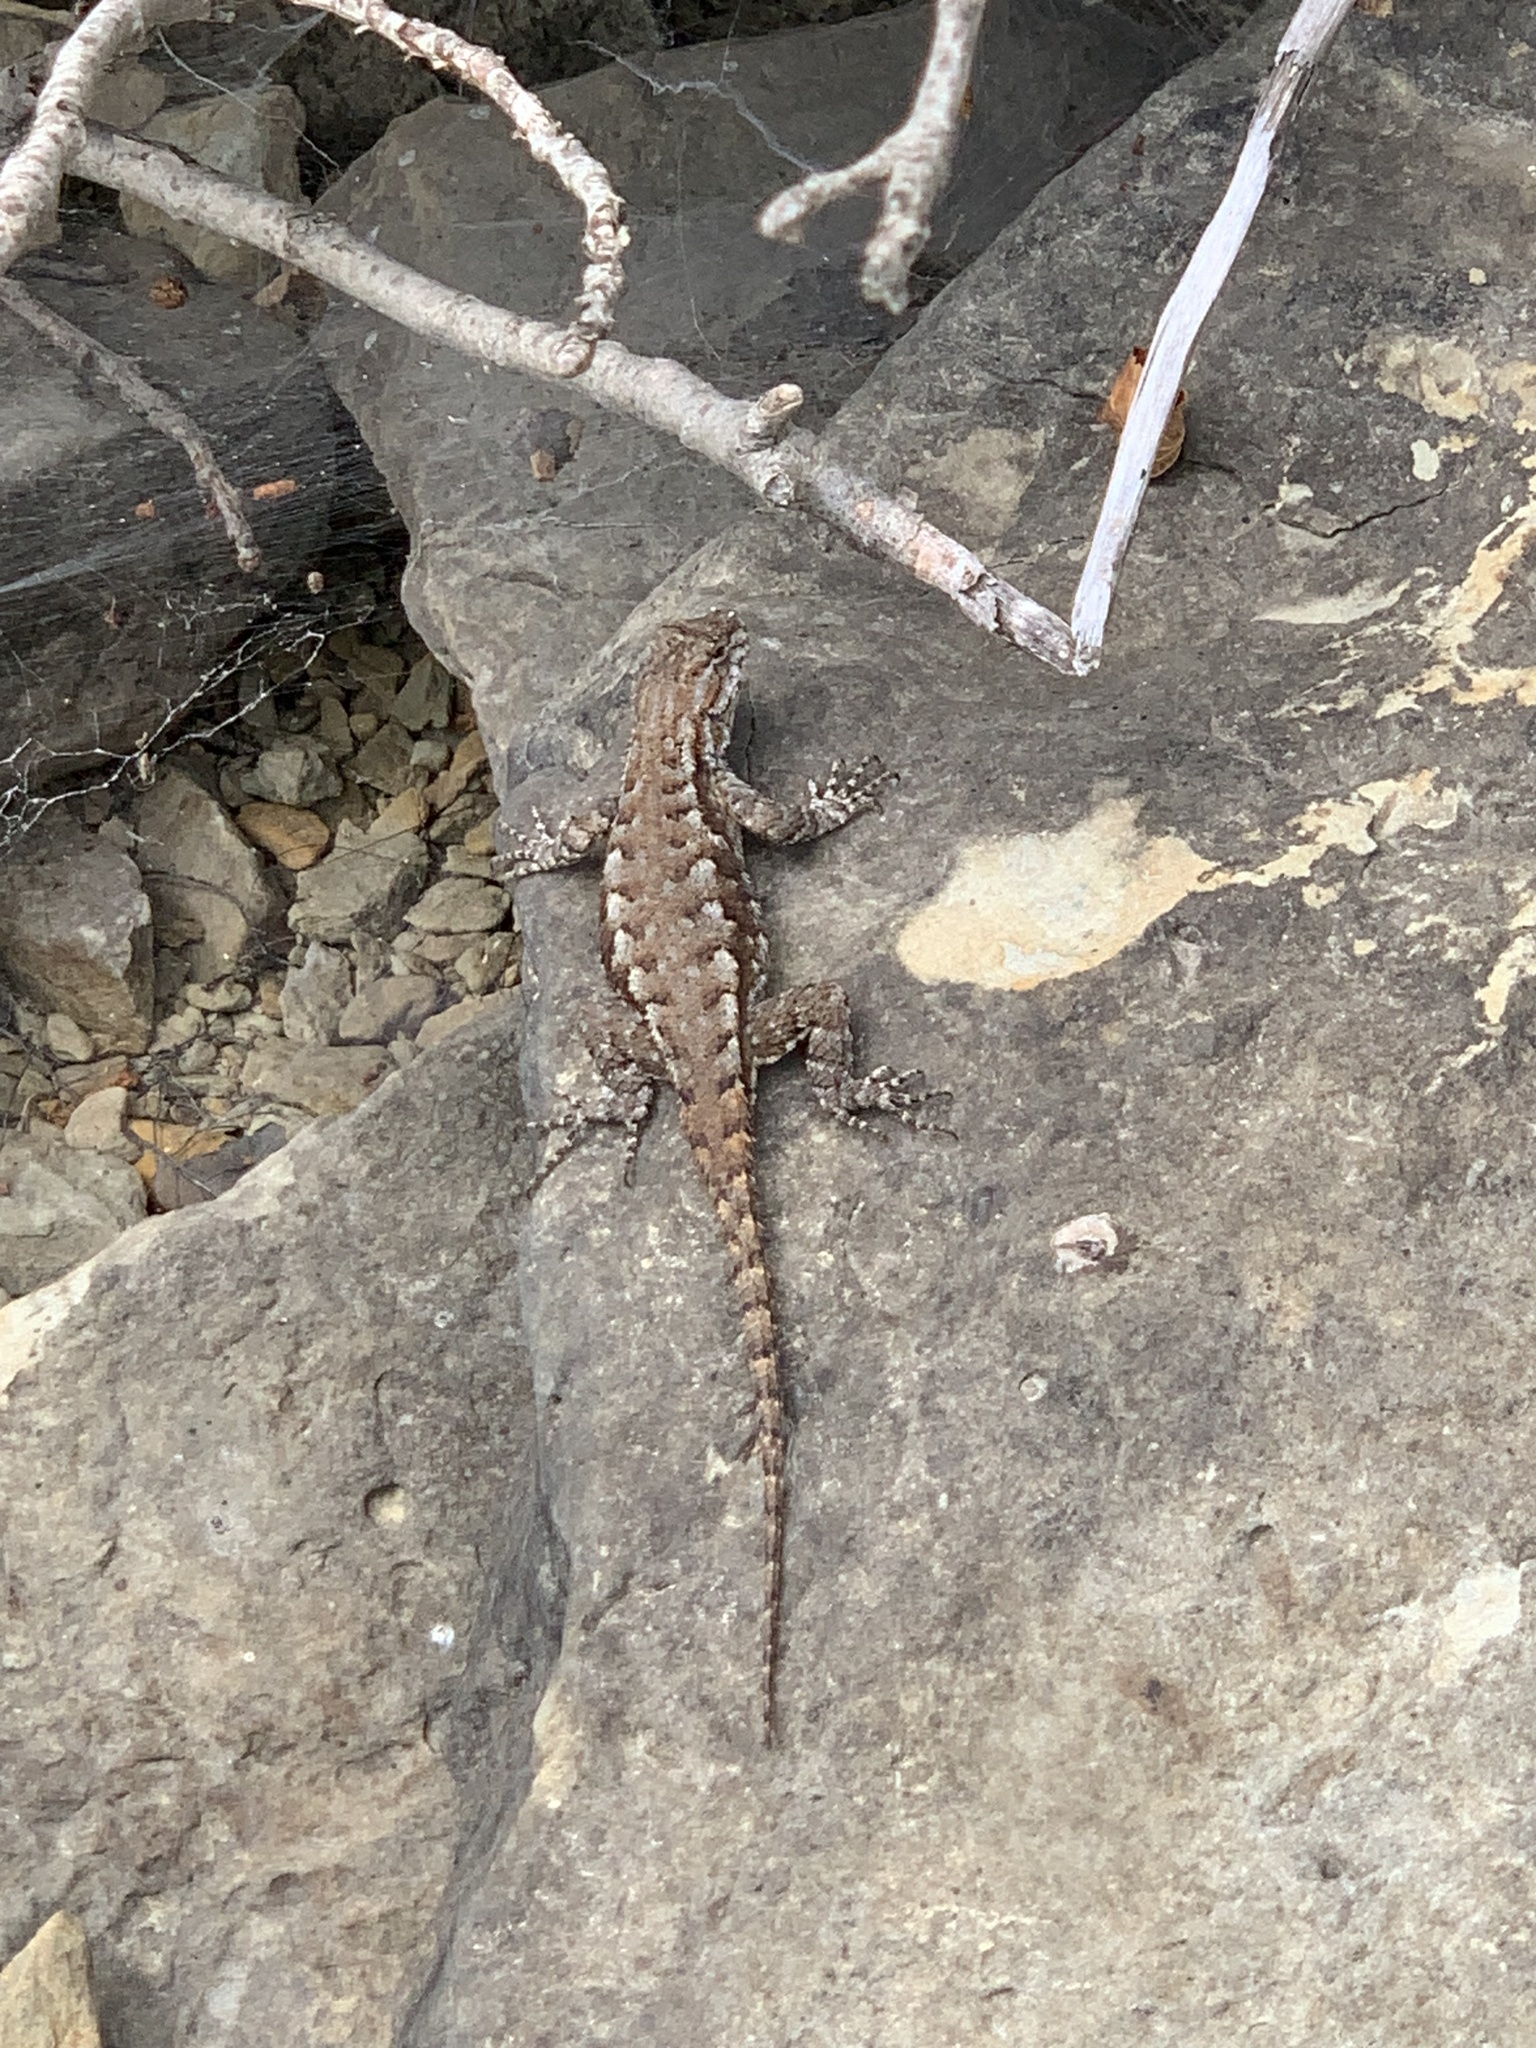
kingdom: Animalia
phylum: Chordata
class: Squamata
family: Phrynosomatidae
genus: Sceloporus
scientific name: Sceloporus undulatus
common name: Eastern fence lizard
